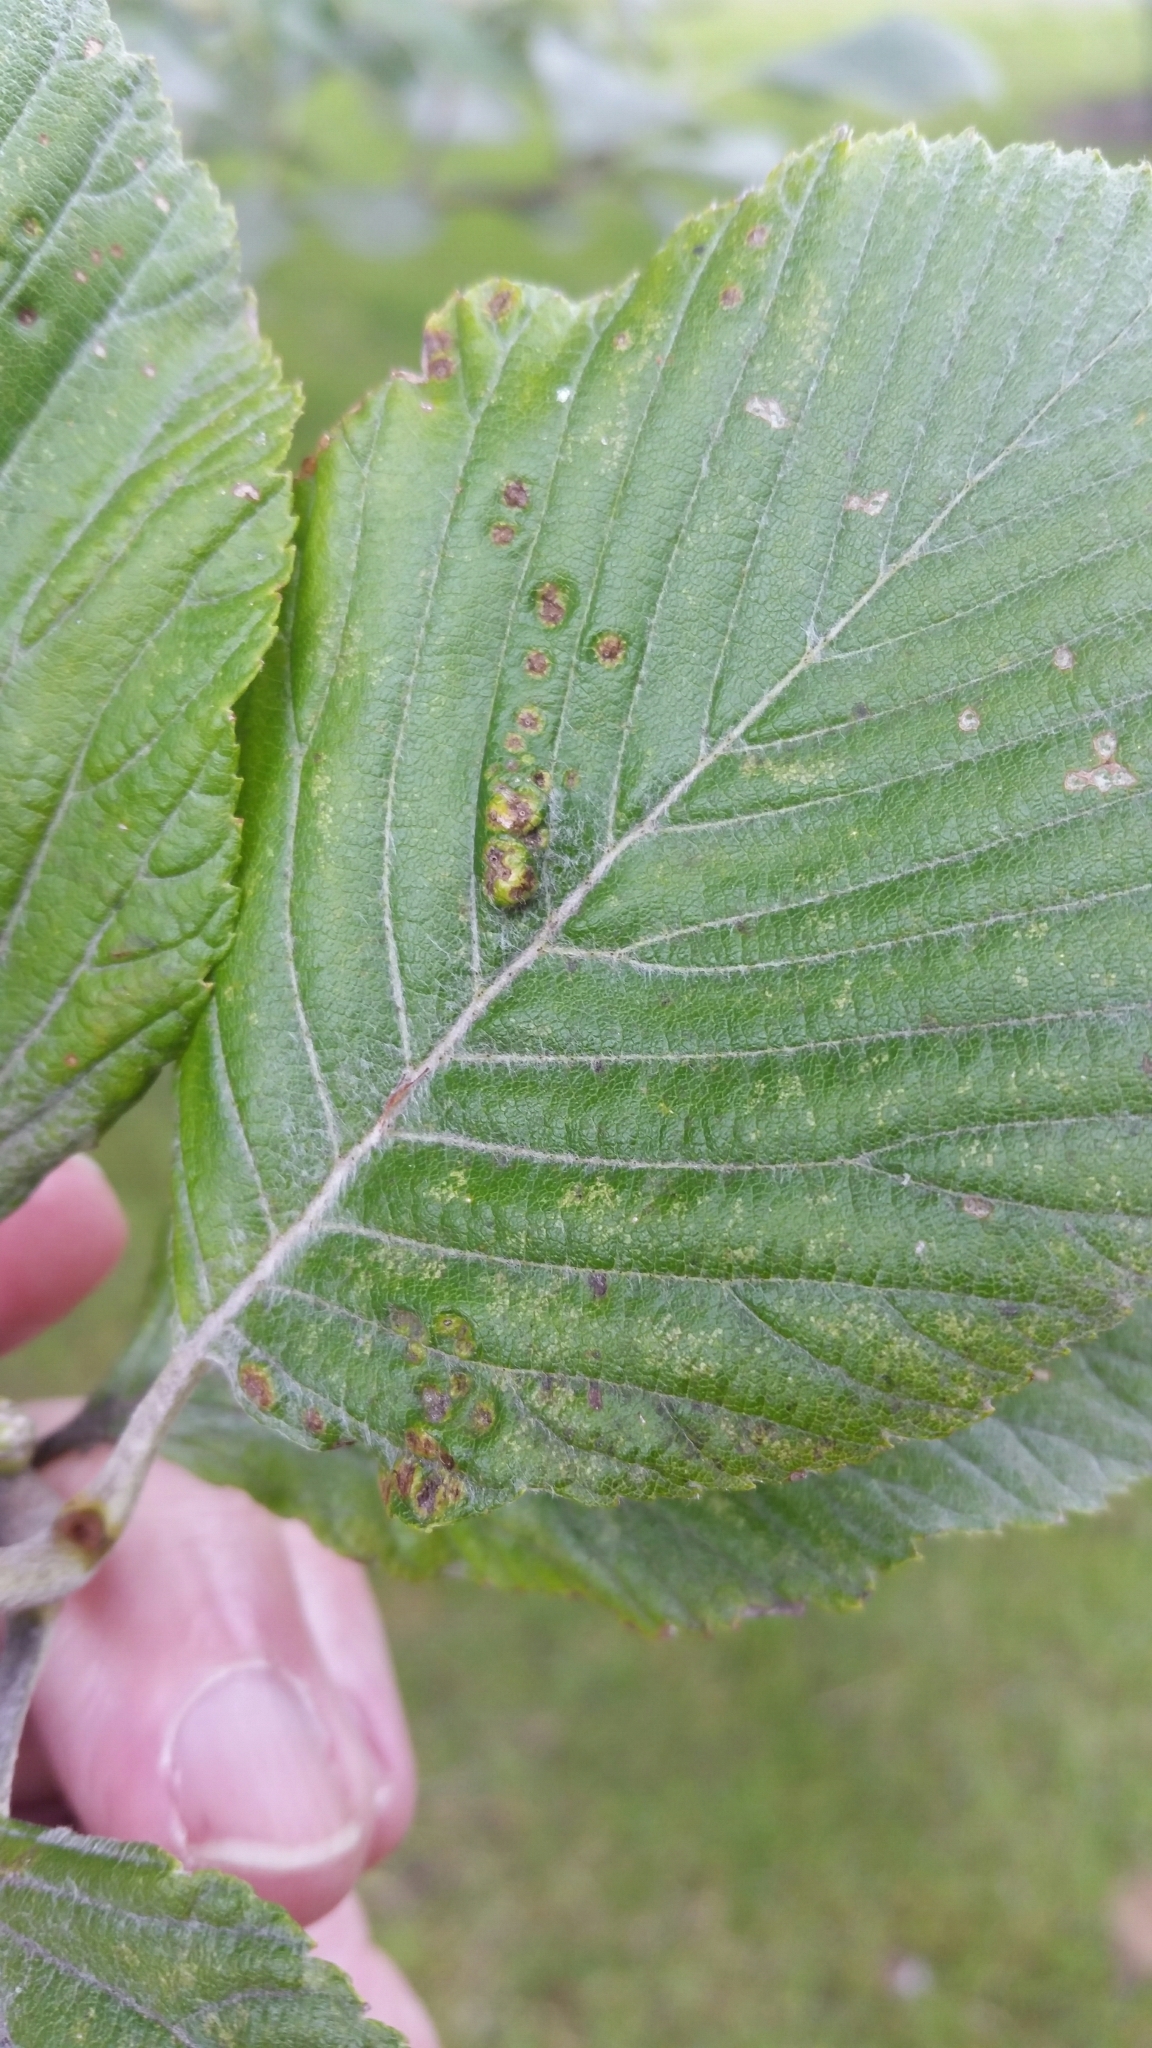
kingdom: Animalia
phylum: Arthropoda
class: Arachnida
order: Trombidiformes
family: Eriophyidae
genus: Eriophyes
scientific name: Eriophyes arianus
